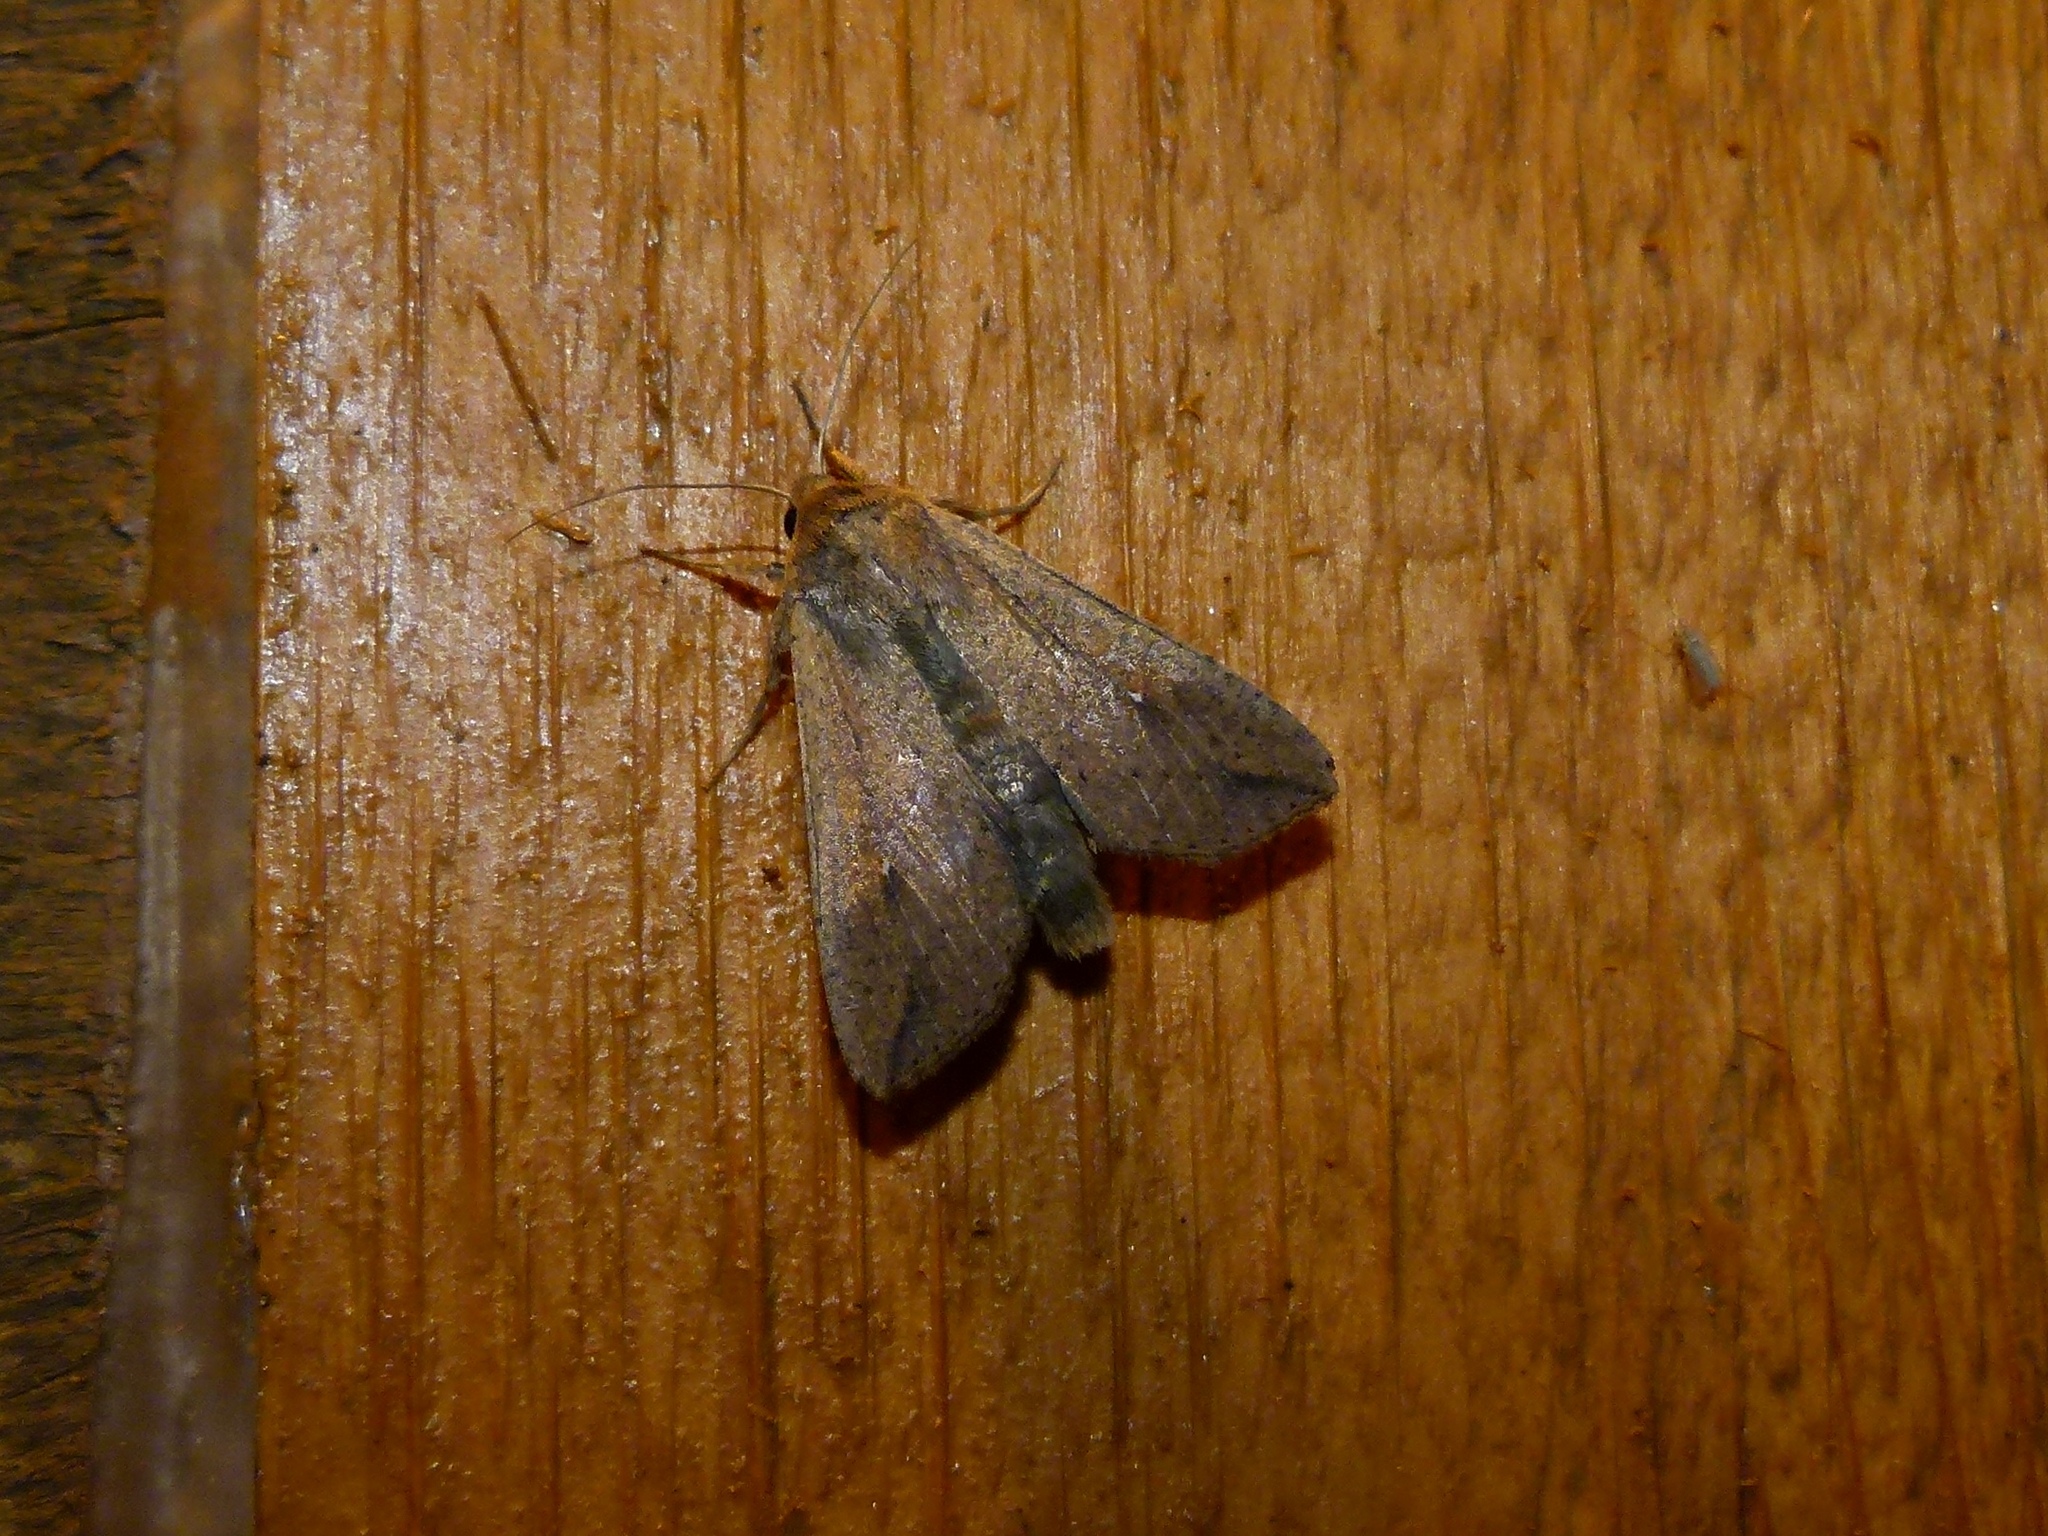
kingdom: Animalia
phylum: Arthropoda
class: Insecta
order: Lepidoptera
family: Noctuidae
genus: Mythimna
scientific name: Mythimna unipuncta
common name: White-speck
